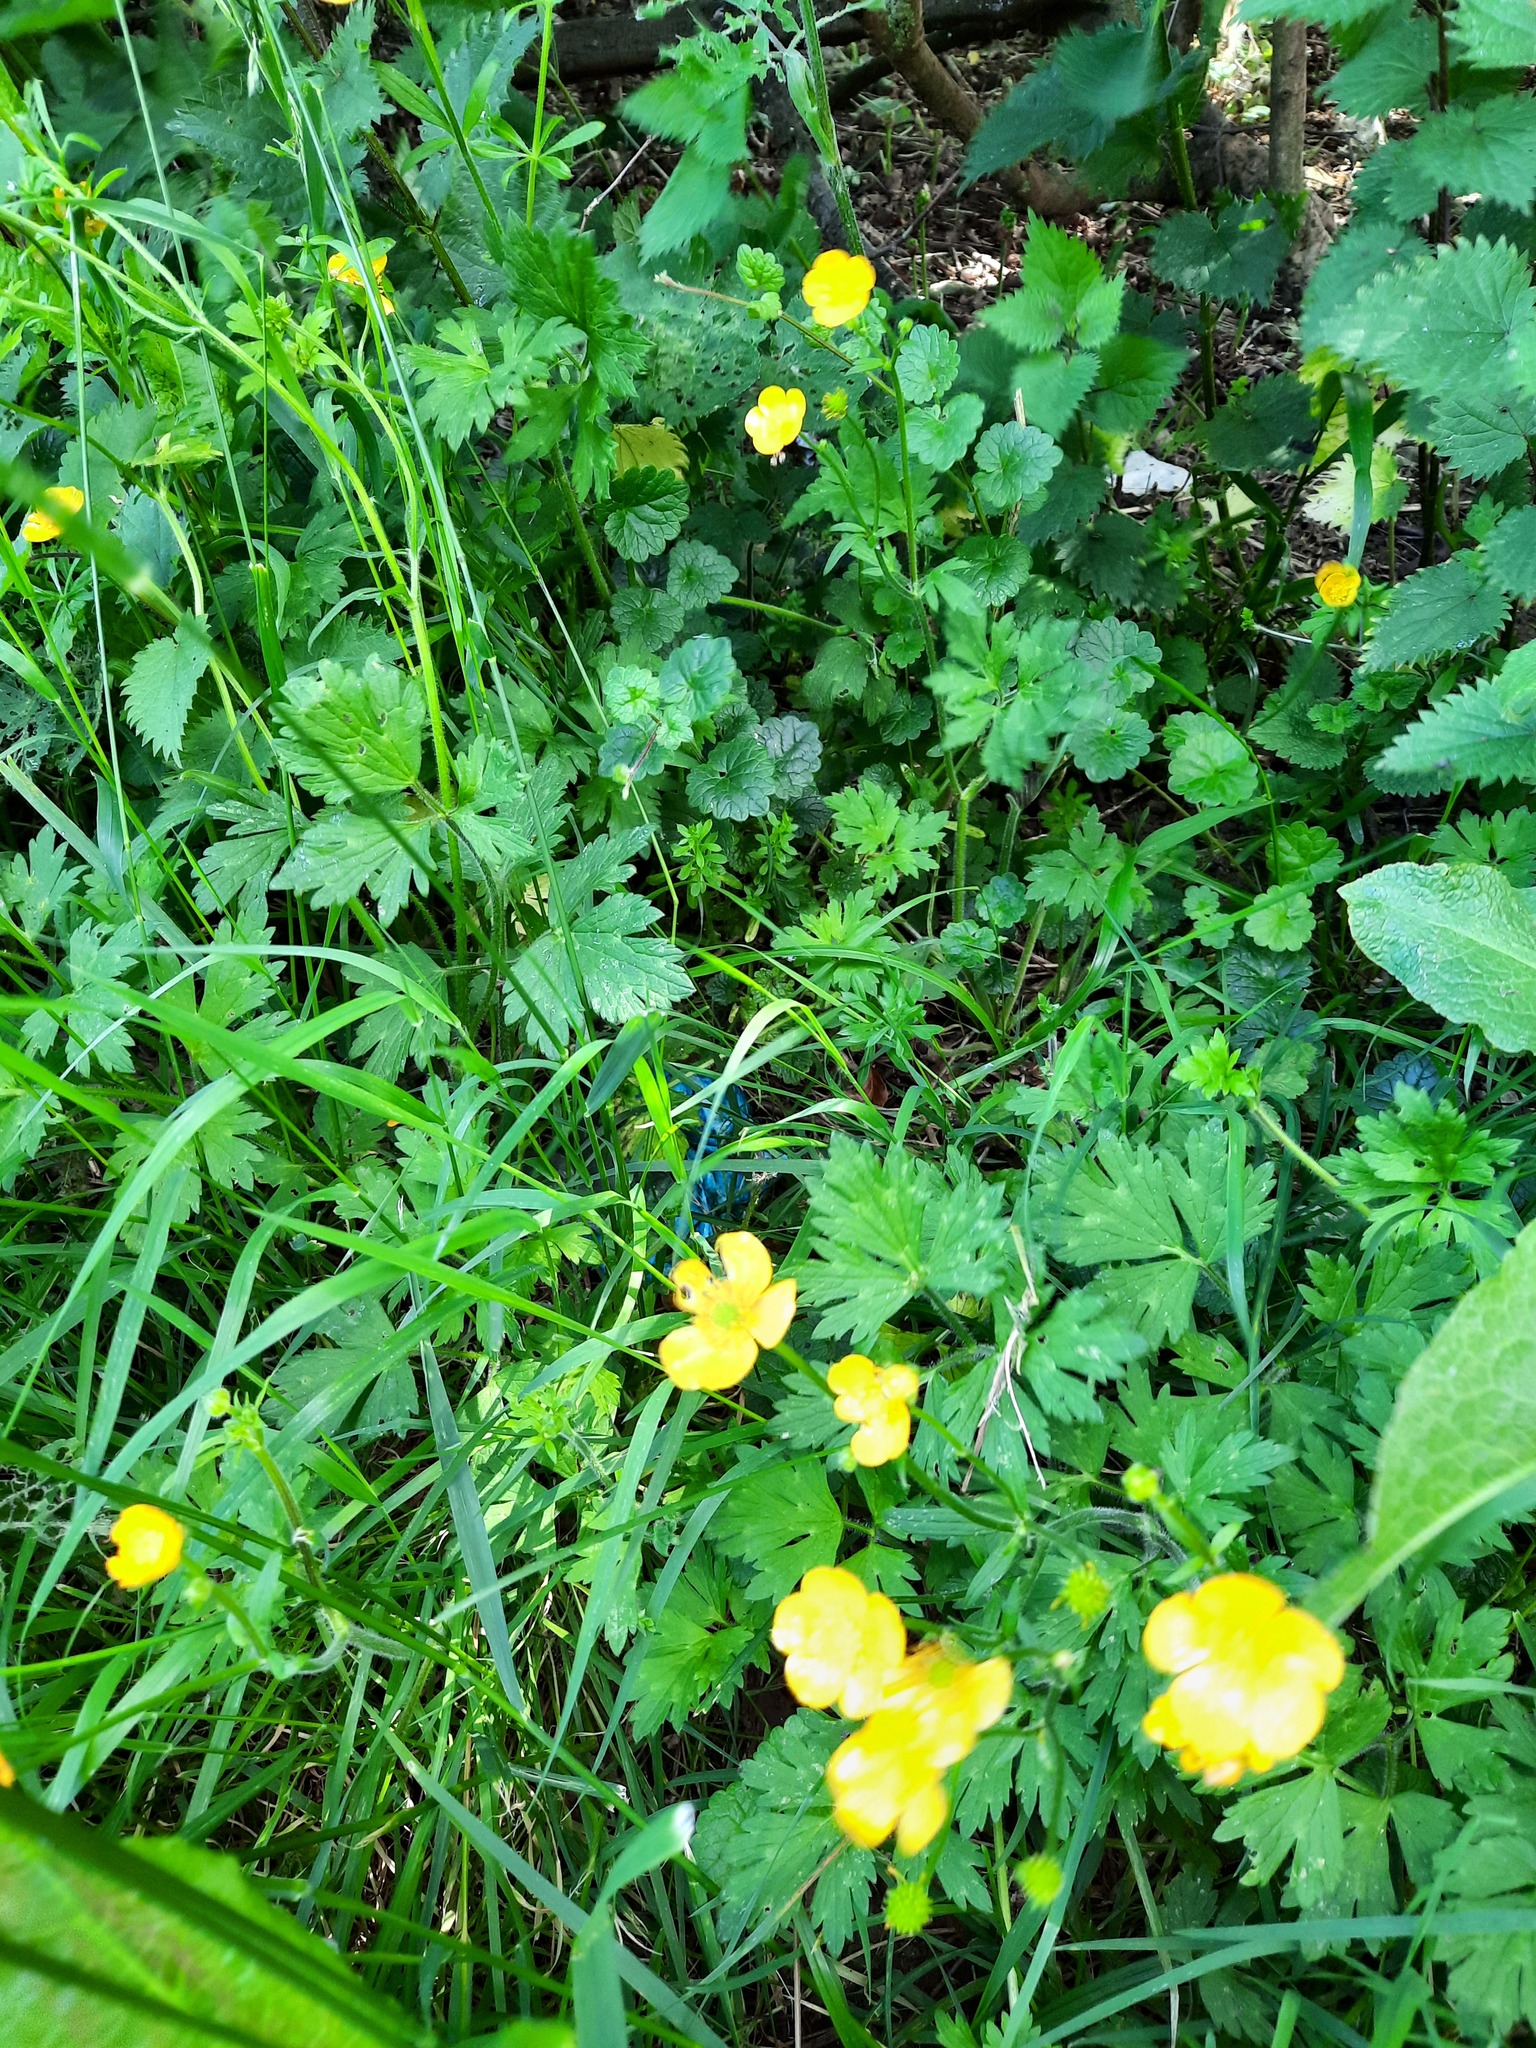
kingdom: Plantae
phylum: Tracheophyta
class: Magnoliopsida
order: Ranunculales
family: Ranunculaceae
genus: Ranunculus
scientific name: Ranunculus repens
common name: Creeping buttercup
